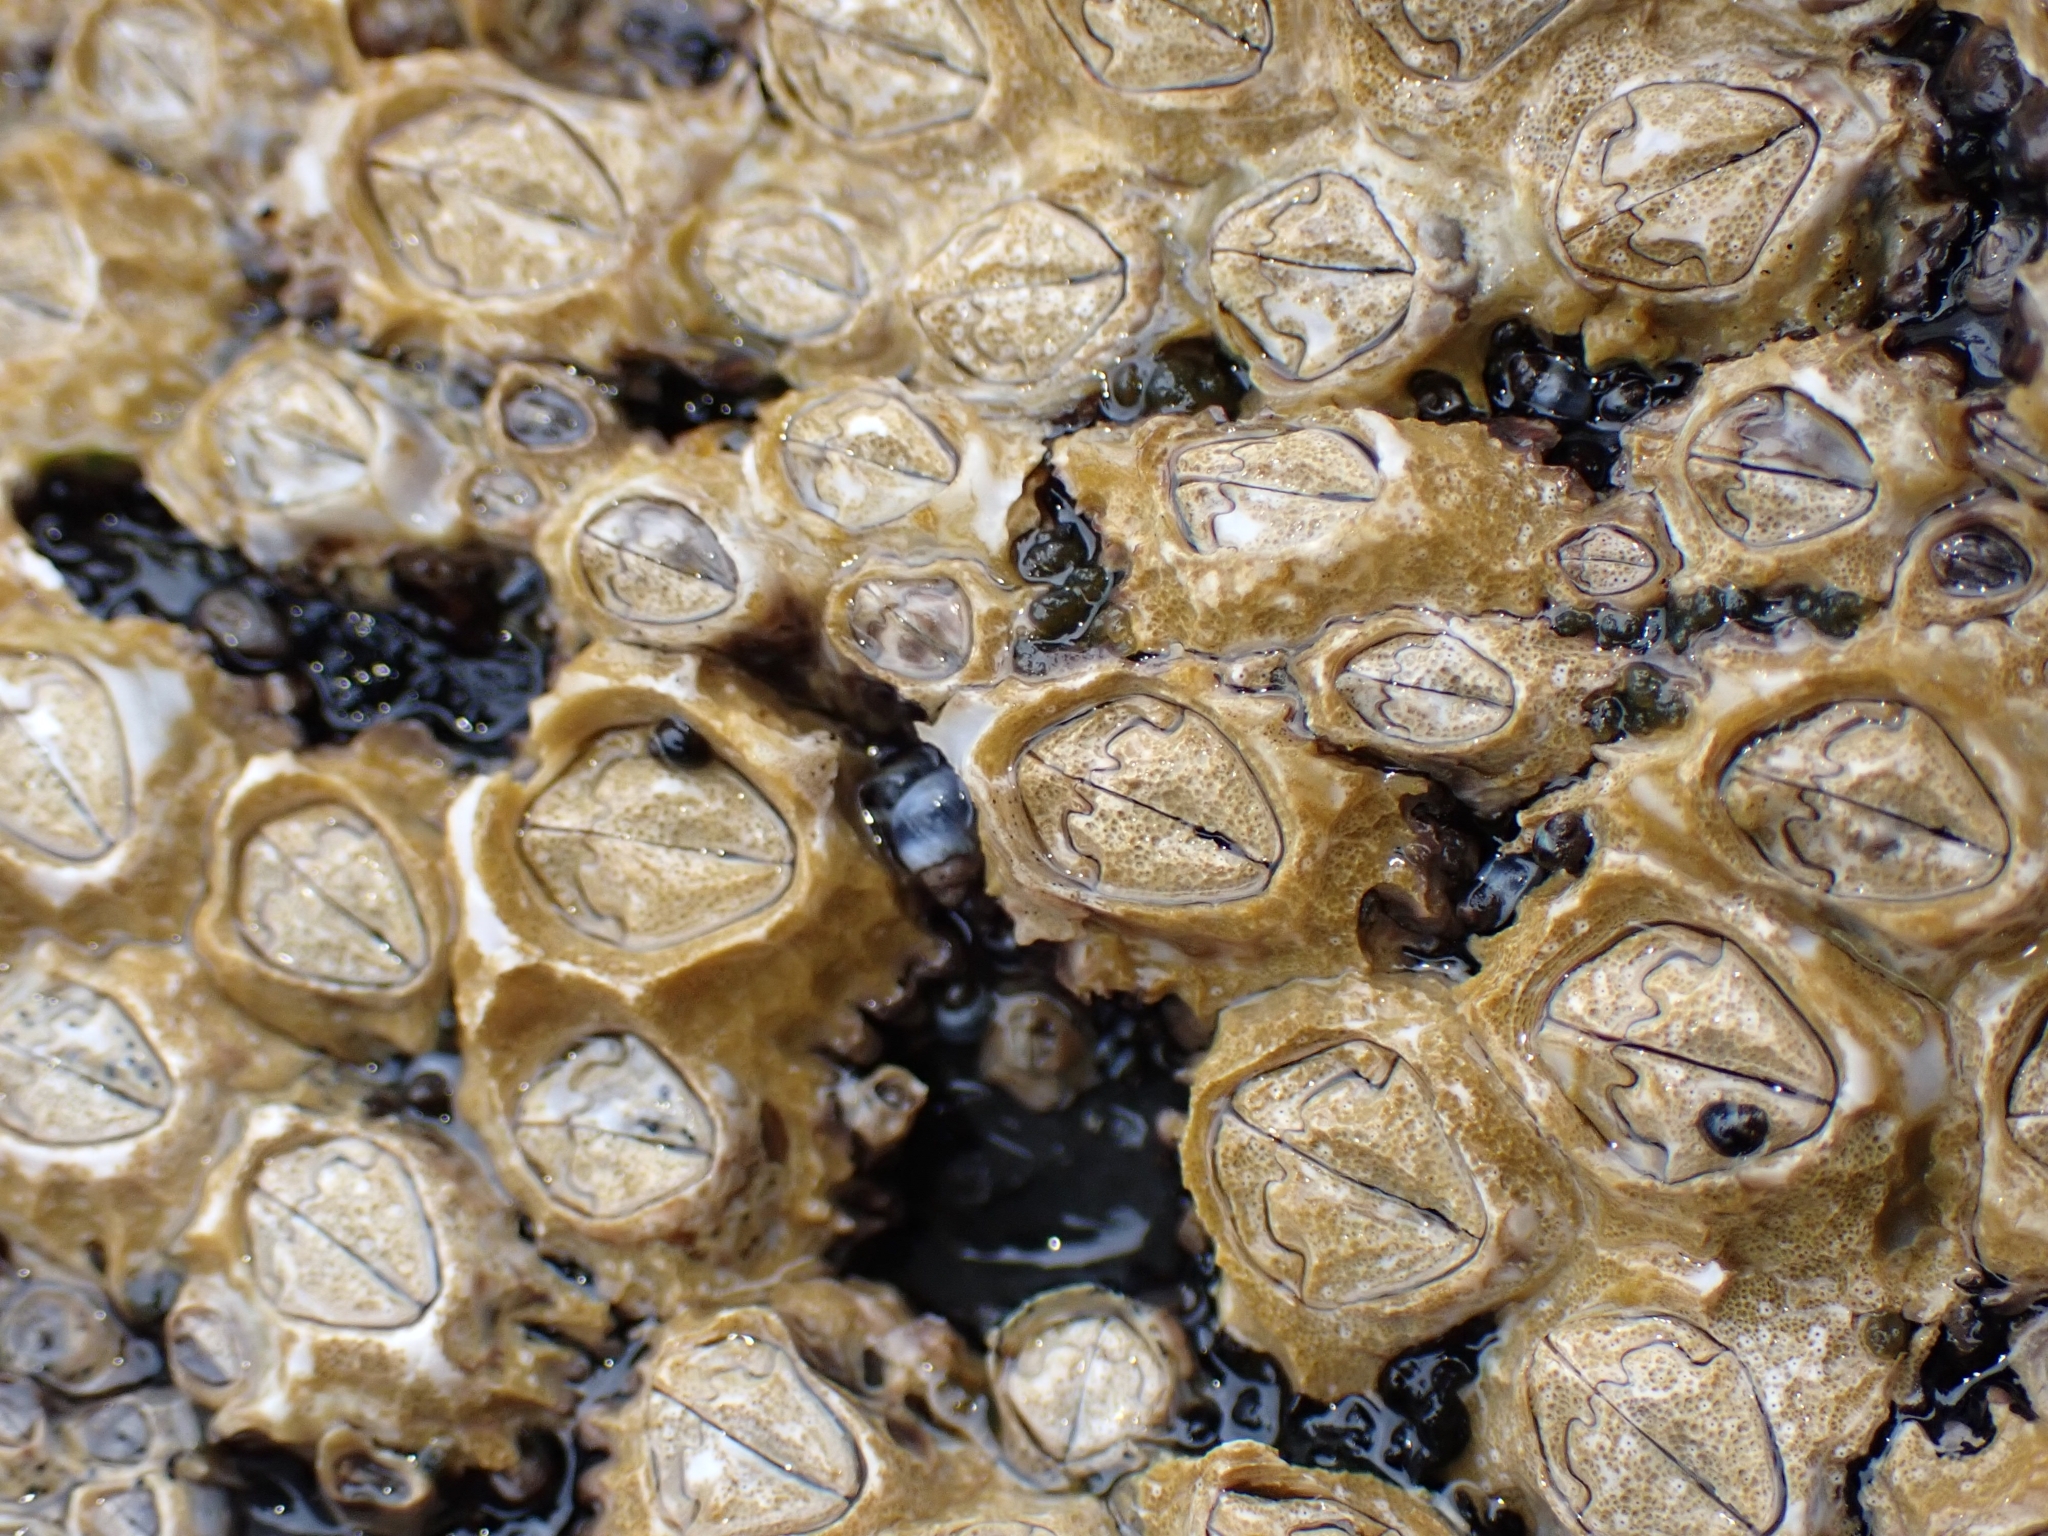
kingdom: Animalia
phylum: Arthropoda
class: Maxillopoda
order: Sessilia
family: Chthamalidae
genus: Chamaesipho
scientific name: Chamaesipho brunnea
